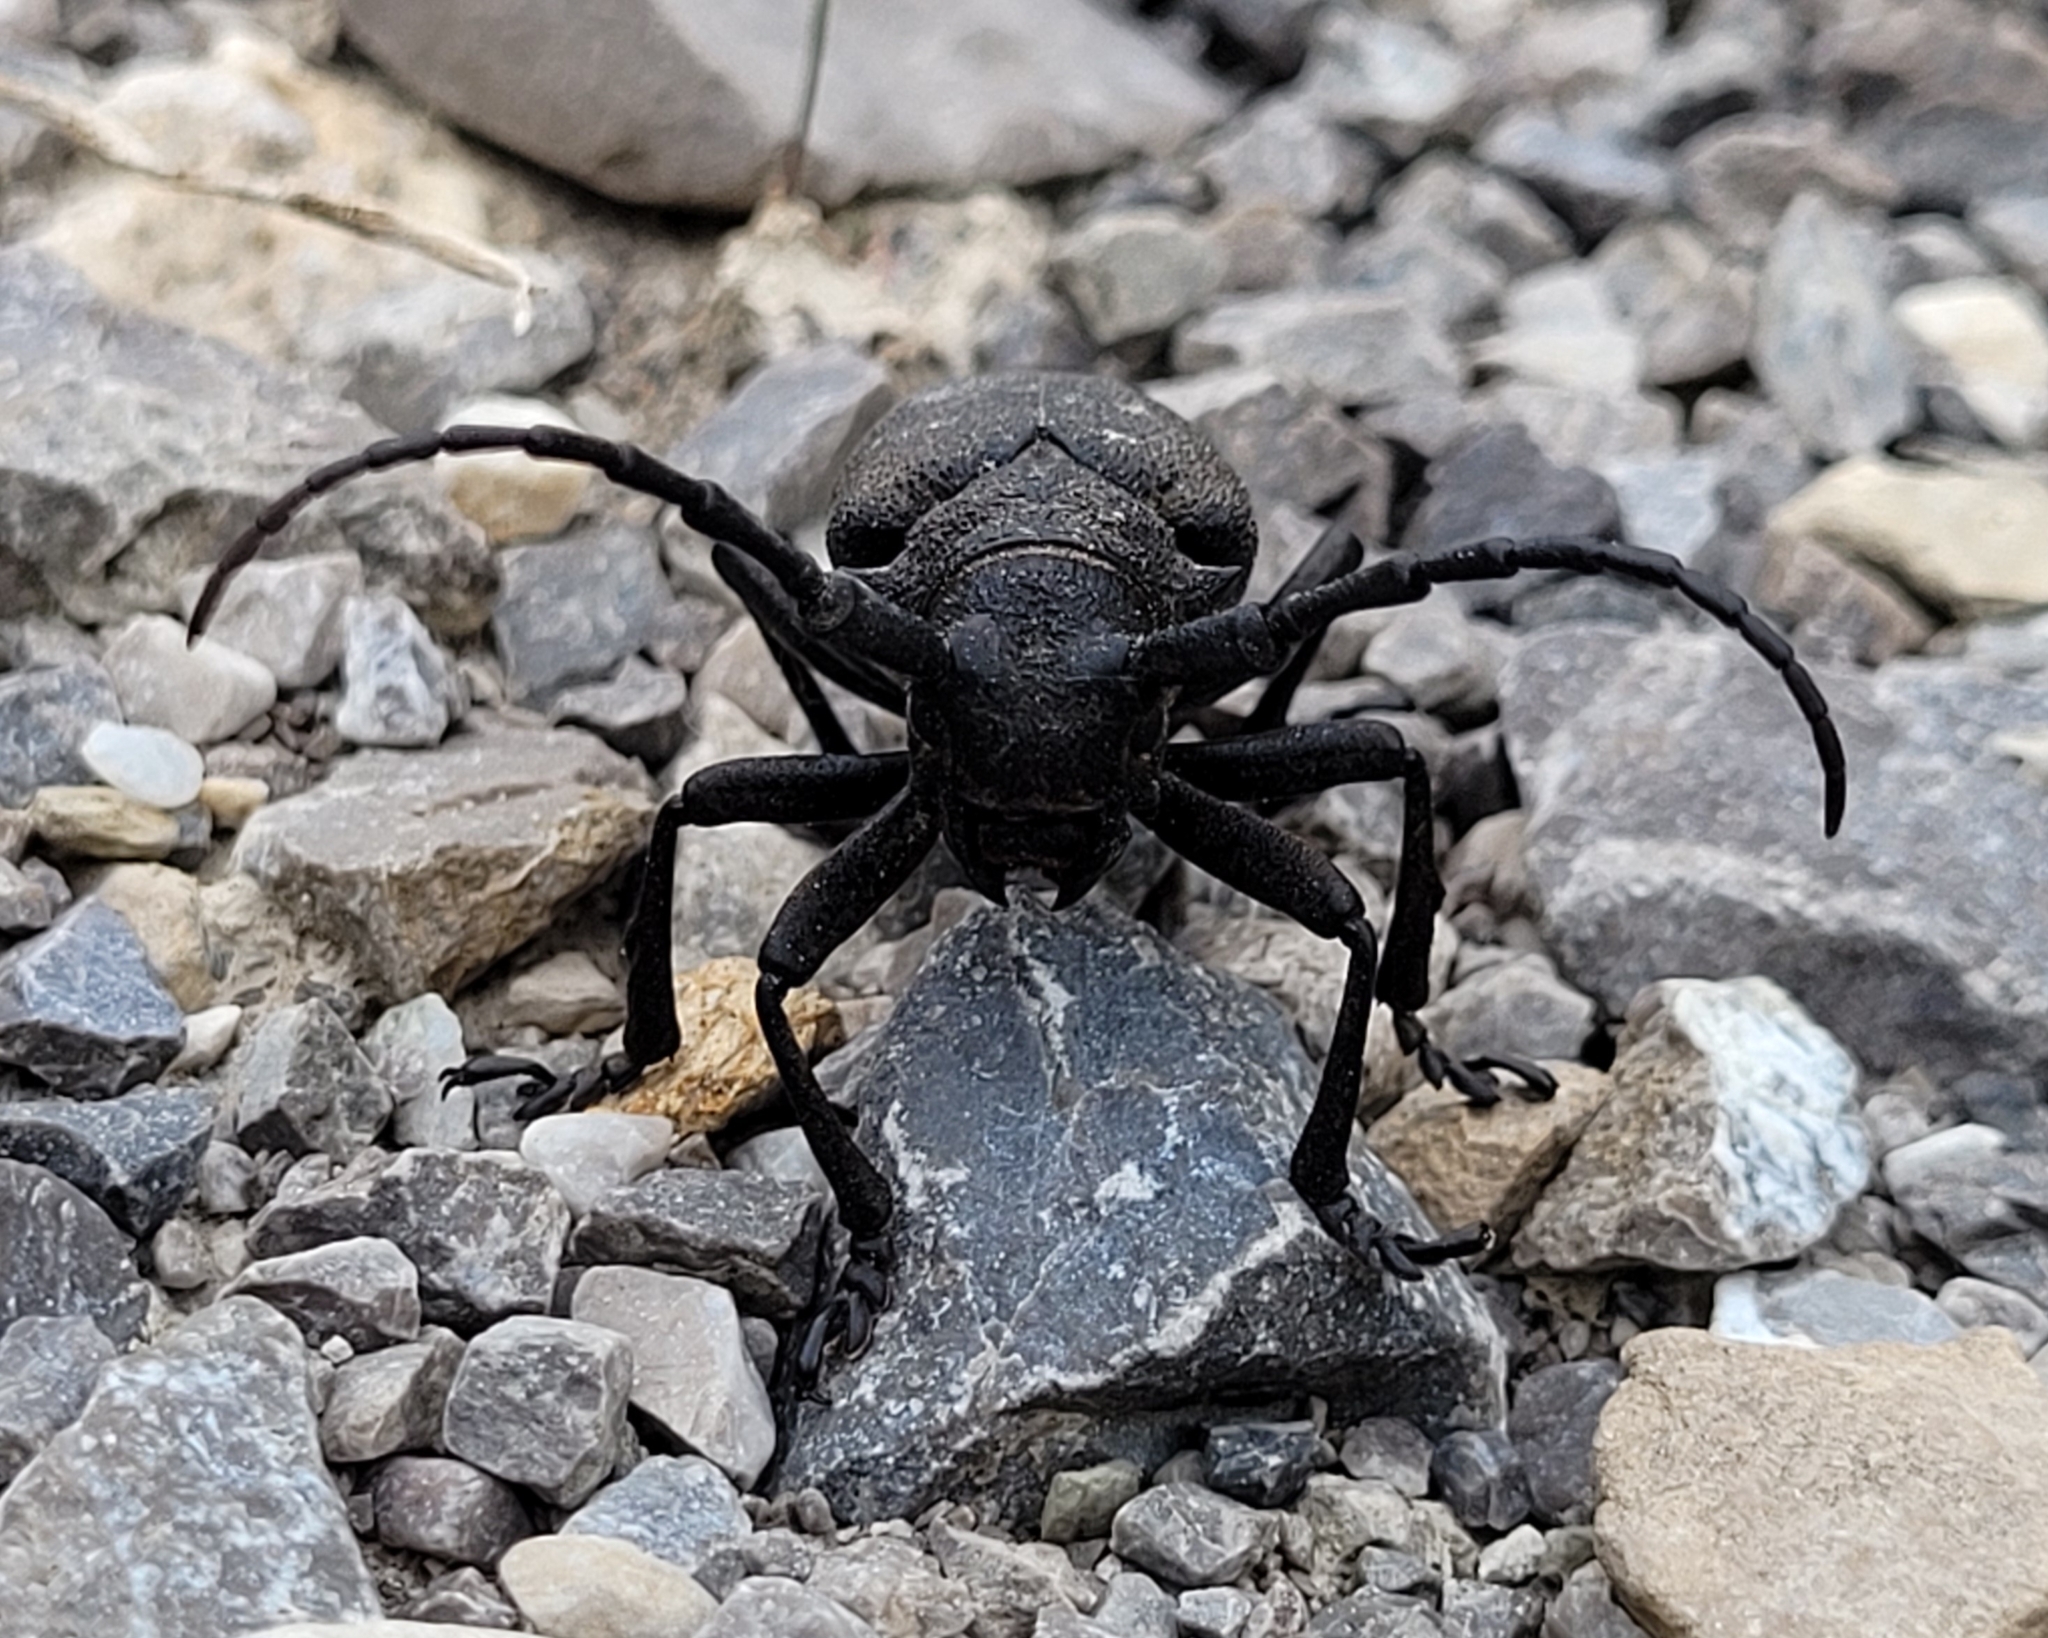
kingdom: Animalia
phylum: Arthropoda
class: Insecta
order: Coleoptera
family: Cerambycidae
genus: Lamia
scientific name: Lamia textor
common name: Weaver beetle
